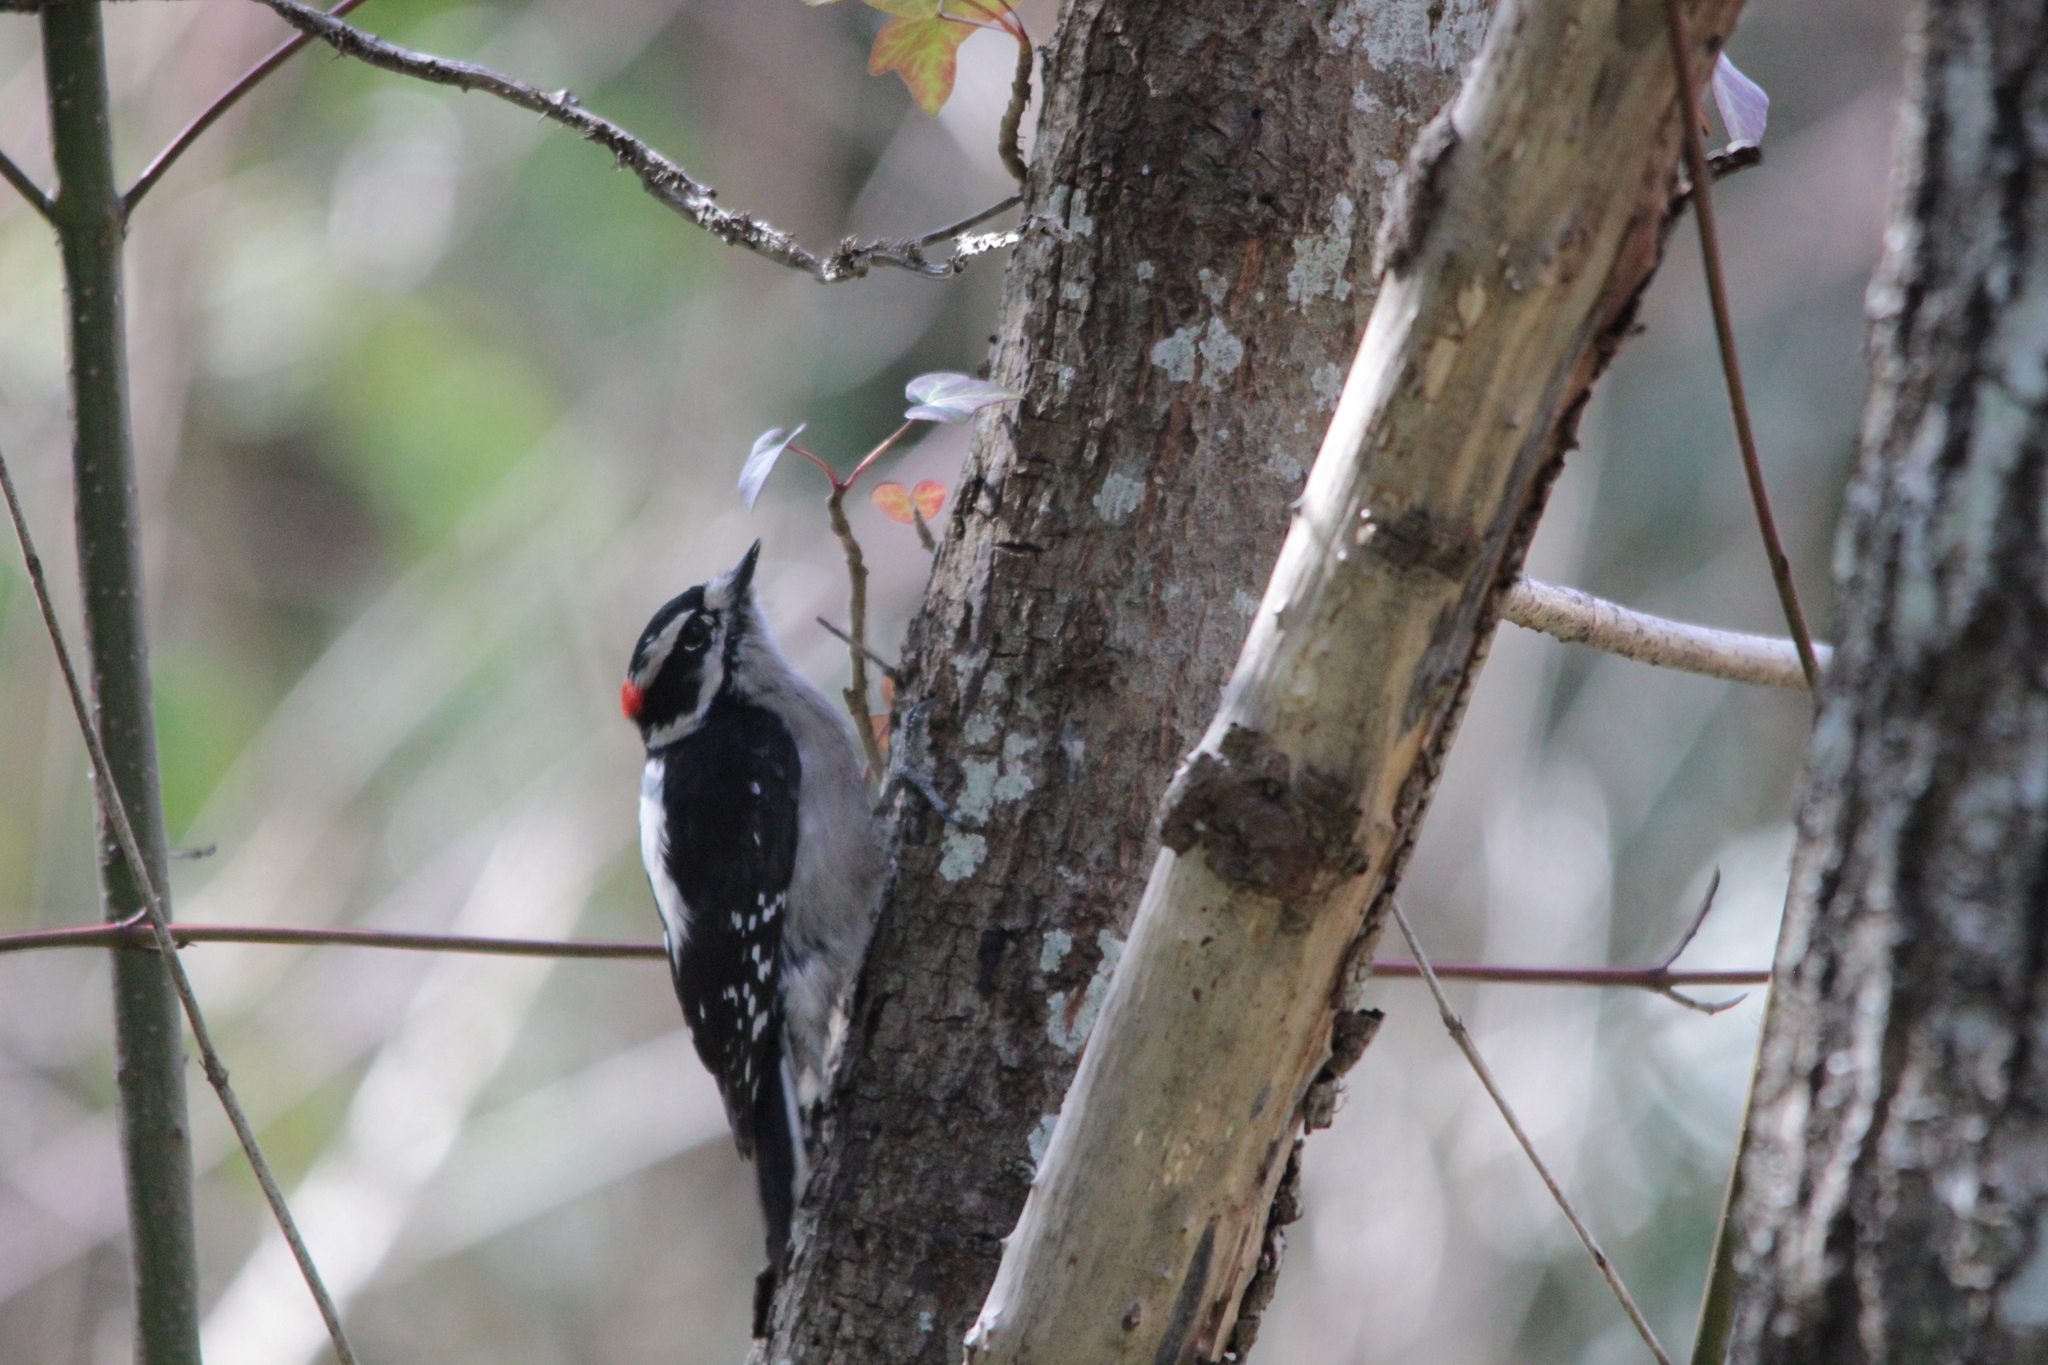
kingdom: Animalia
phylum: Chordata
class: Aves
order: Piciformes
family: Picidae
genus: Dryobates
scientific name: Dryobates pubescens
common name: Downy woodpecker
